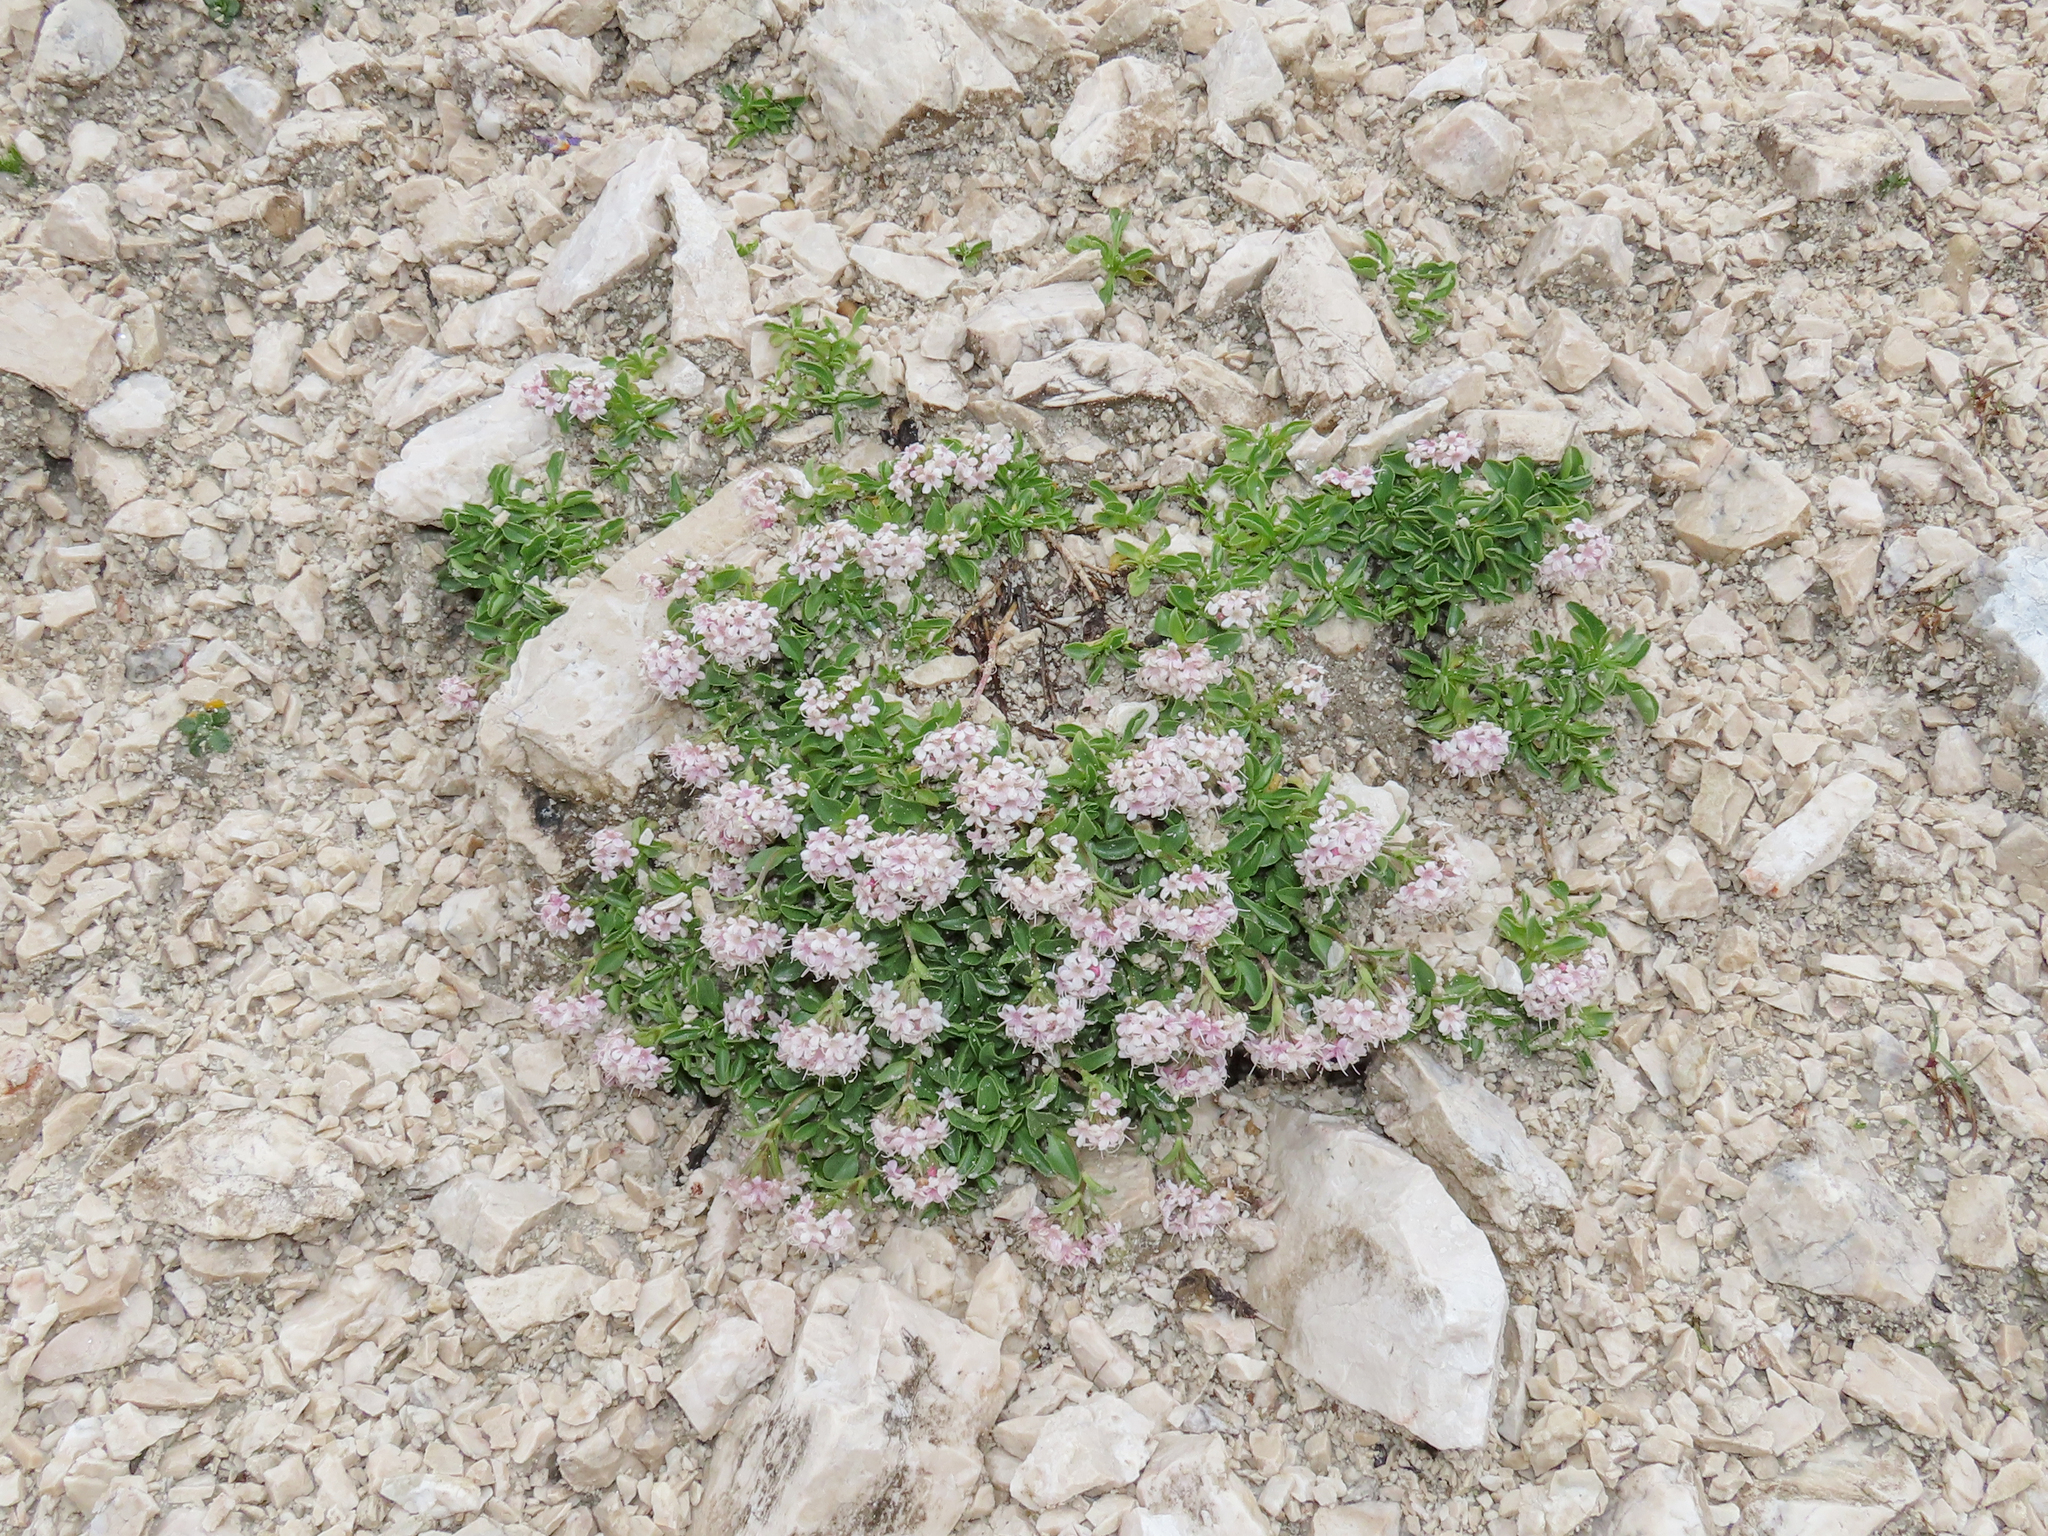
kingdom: Plantae
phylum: Tracheophyta
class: Magnoliopsida
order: Dipsacales
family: Caprifoliaceae
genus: Valeriana
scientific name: Valeriana supina
